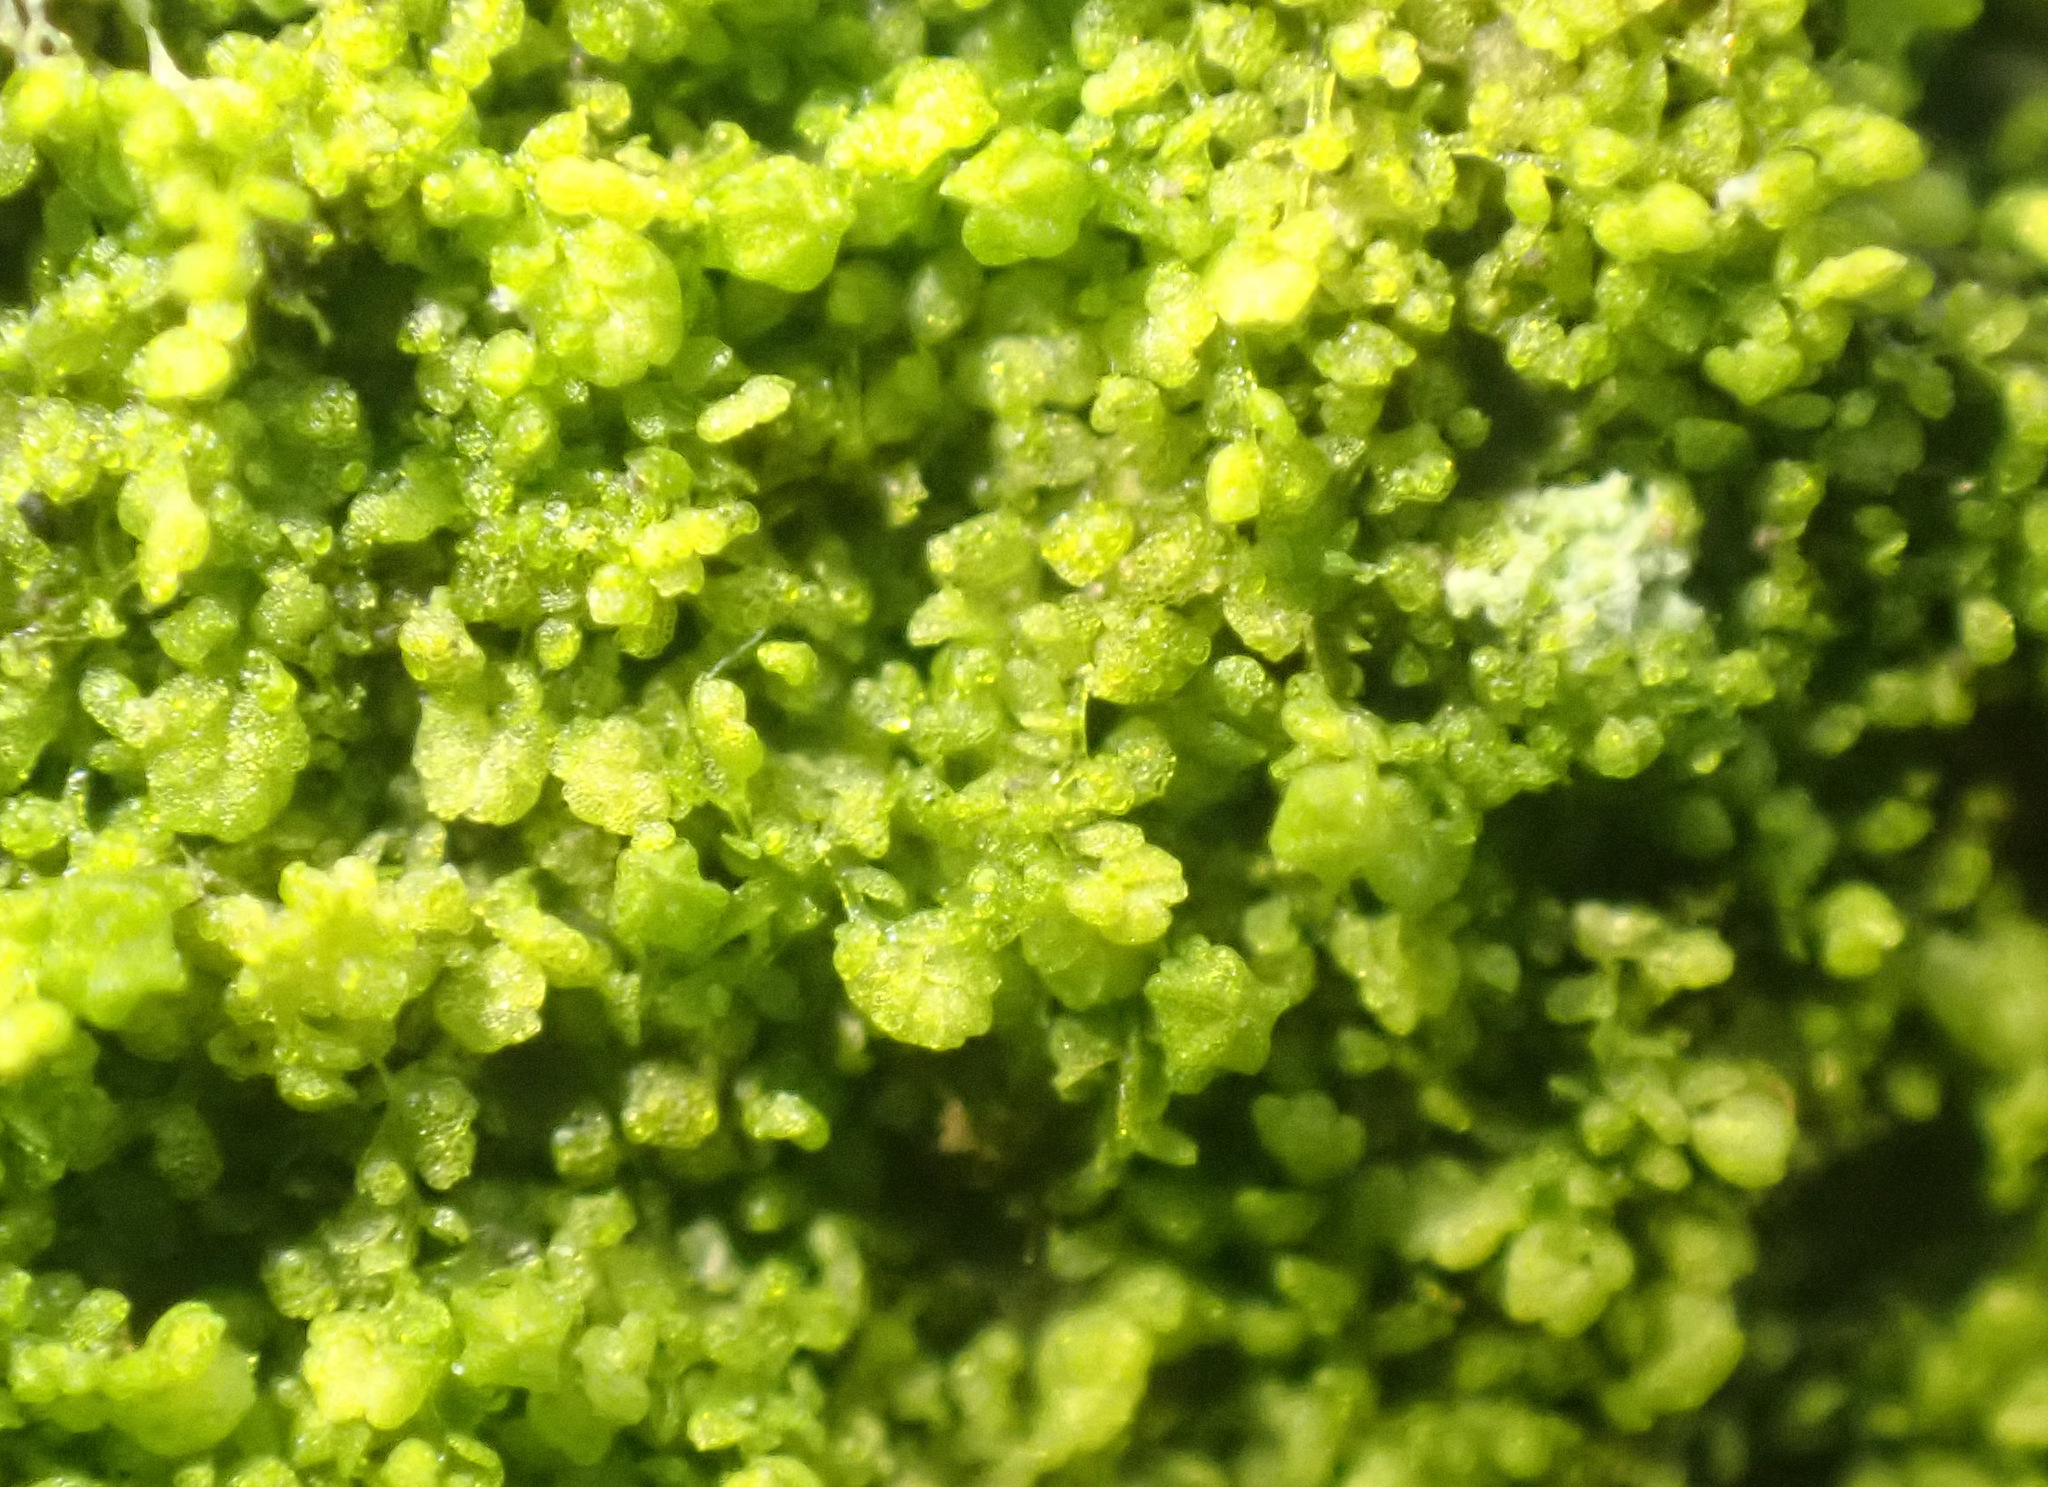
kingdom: Plantae
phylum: Marchantiophyta
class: Jungermanniopsida
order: Porellales
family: Lejeuneaceae
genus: Myriocoleopsis
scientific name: Myriocoleopsis minutissima
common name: Minute pouncewort
